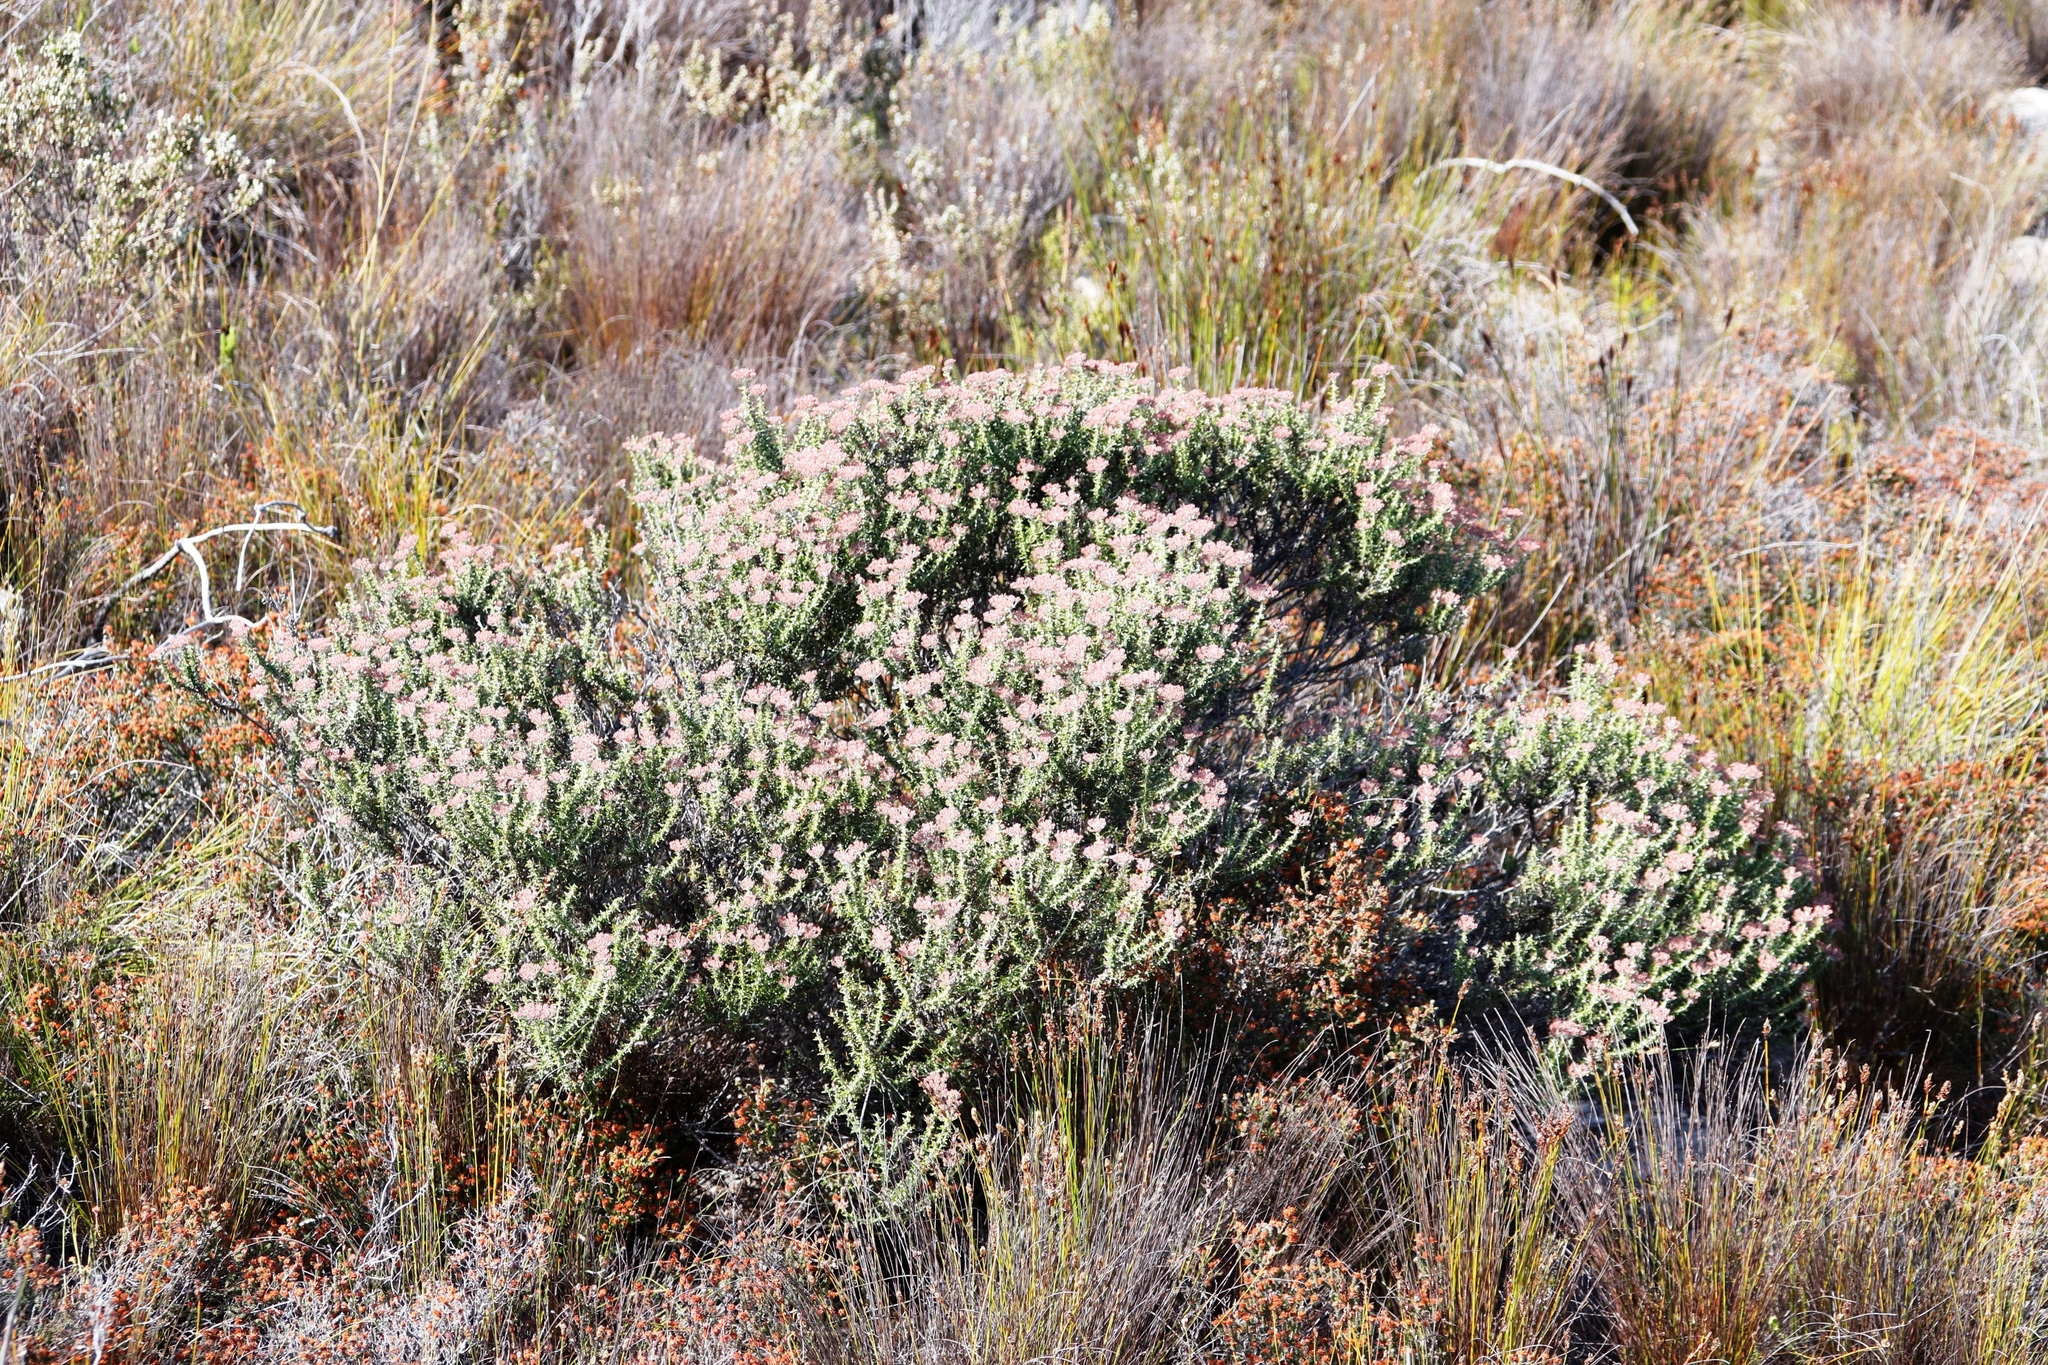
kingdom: Plantae
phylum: Tracheophyta
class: Magnoliopsida
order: Asterales
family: Asteraceae
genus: Metalasia
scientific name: Metalasia densa
